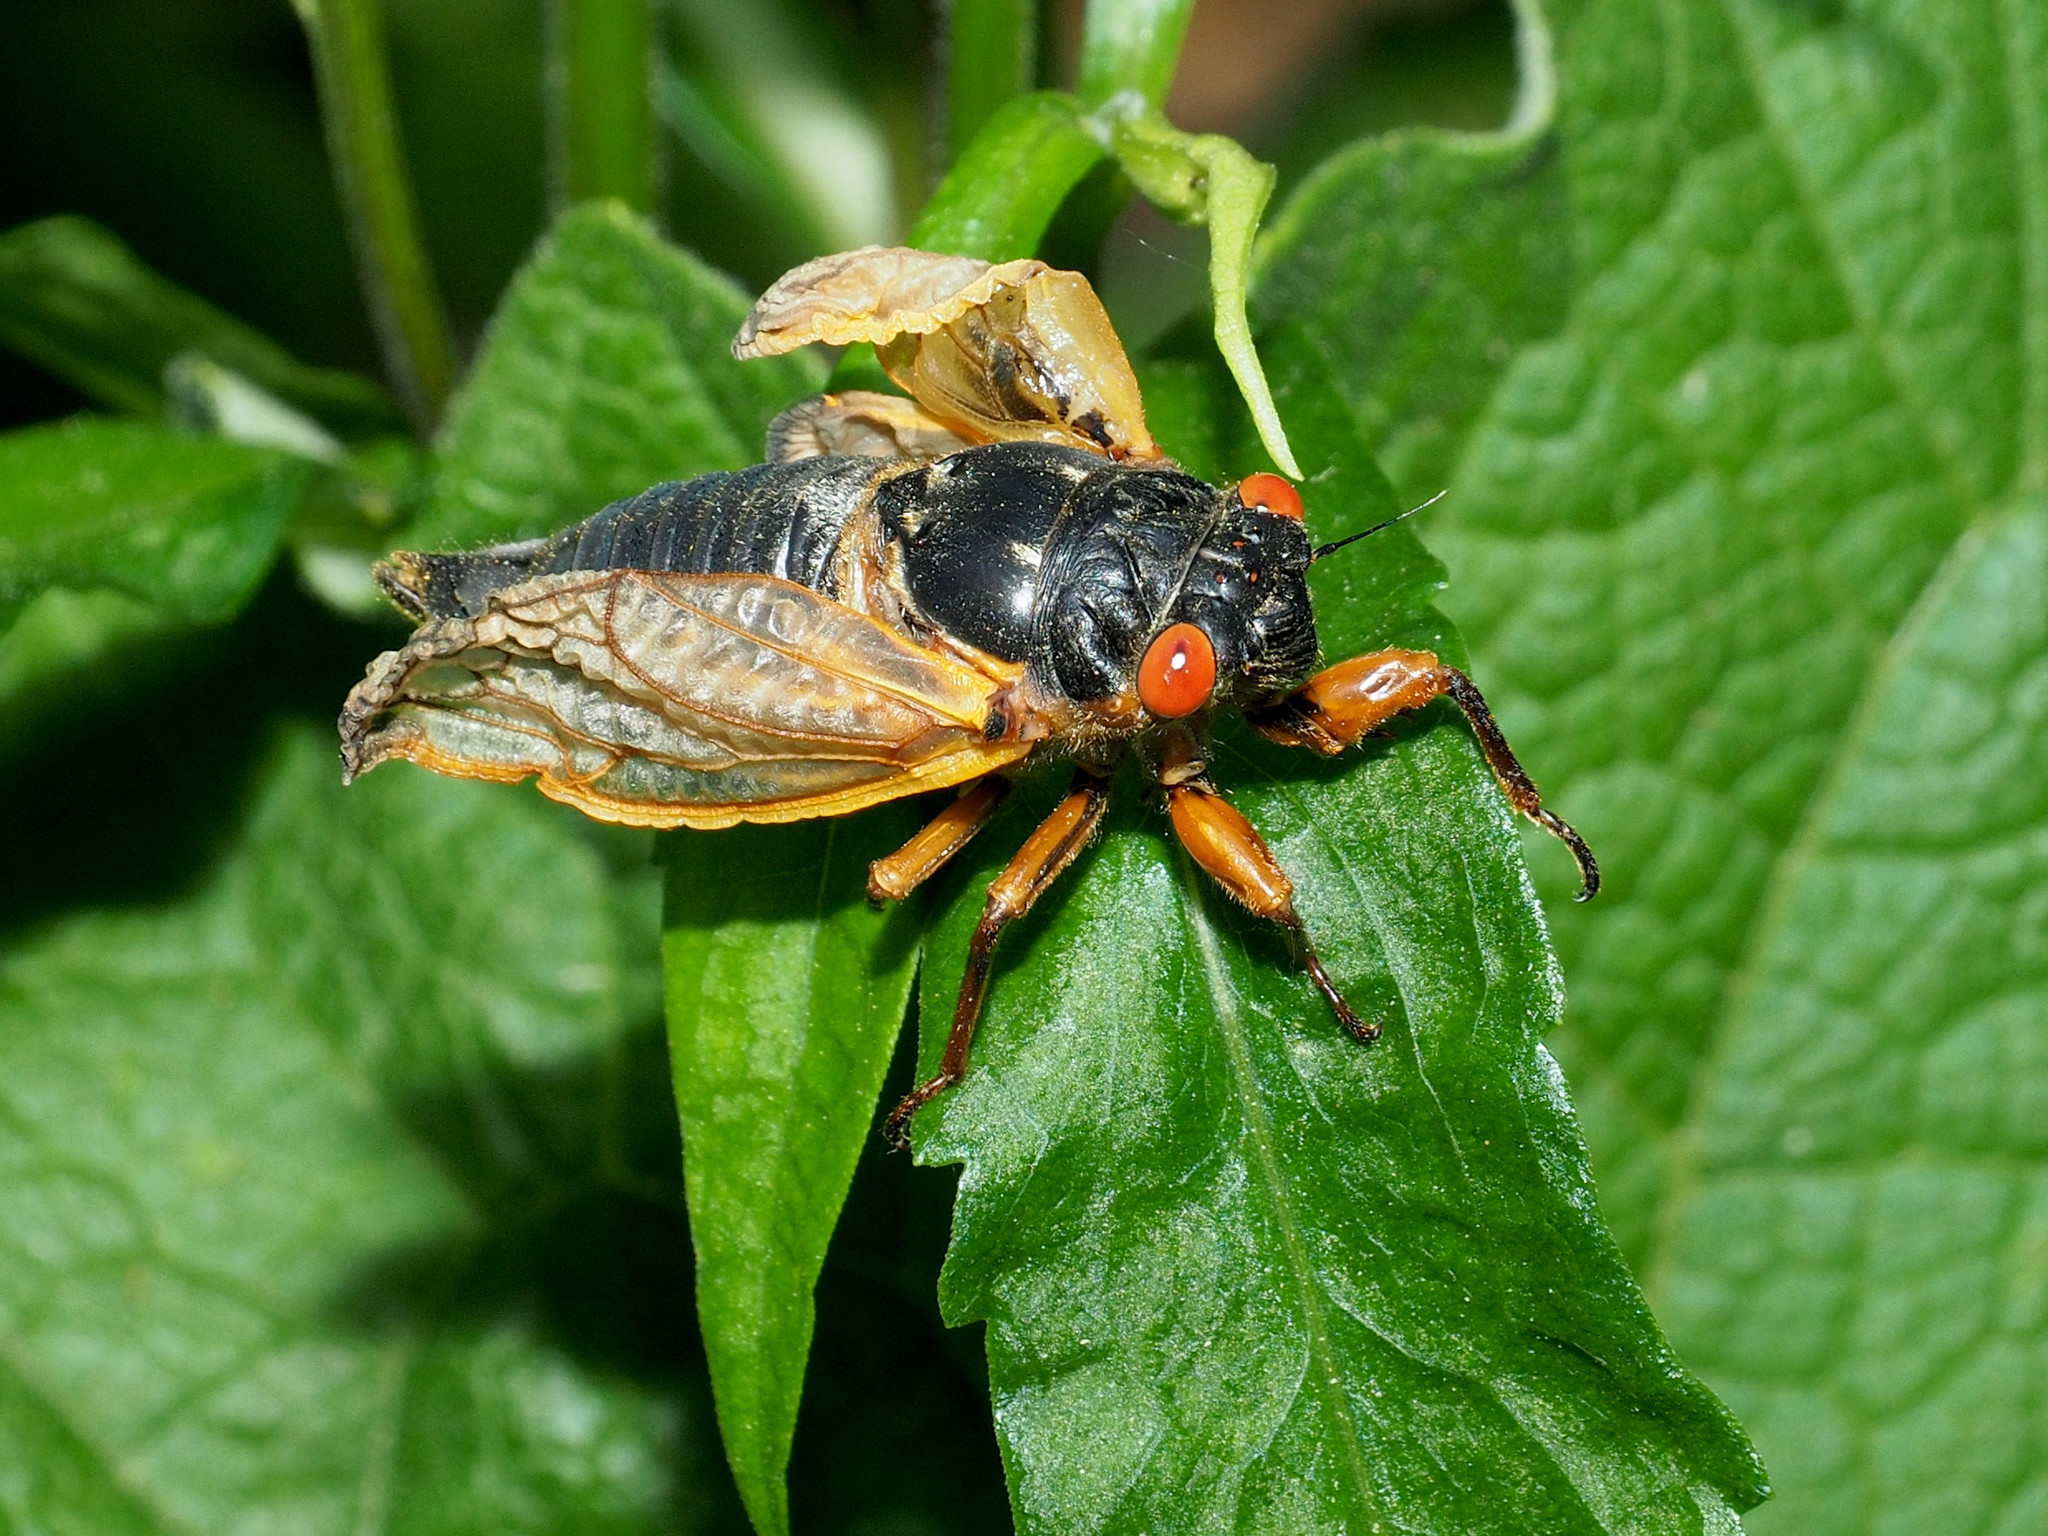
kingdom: Animalia
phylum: Arthropoda
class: Insecta
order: Hemiptera
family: Cicadidae
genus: Magicicada
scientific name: Magicicada septendecim
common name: Periodical cicada
